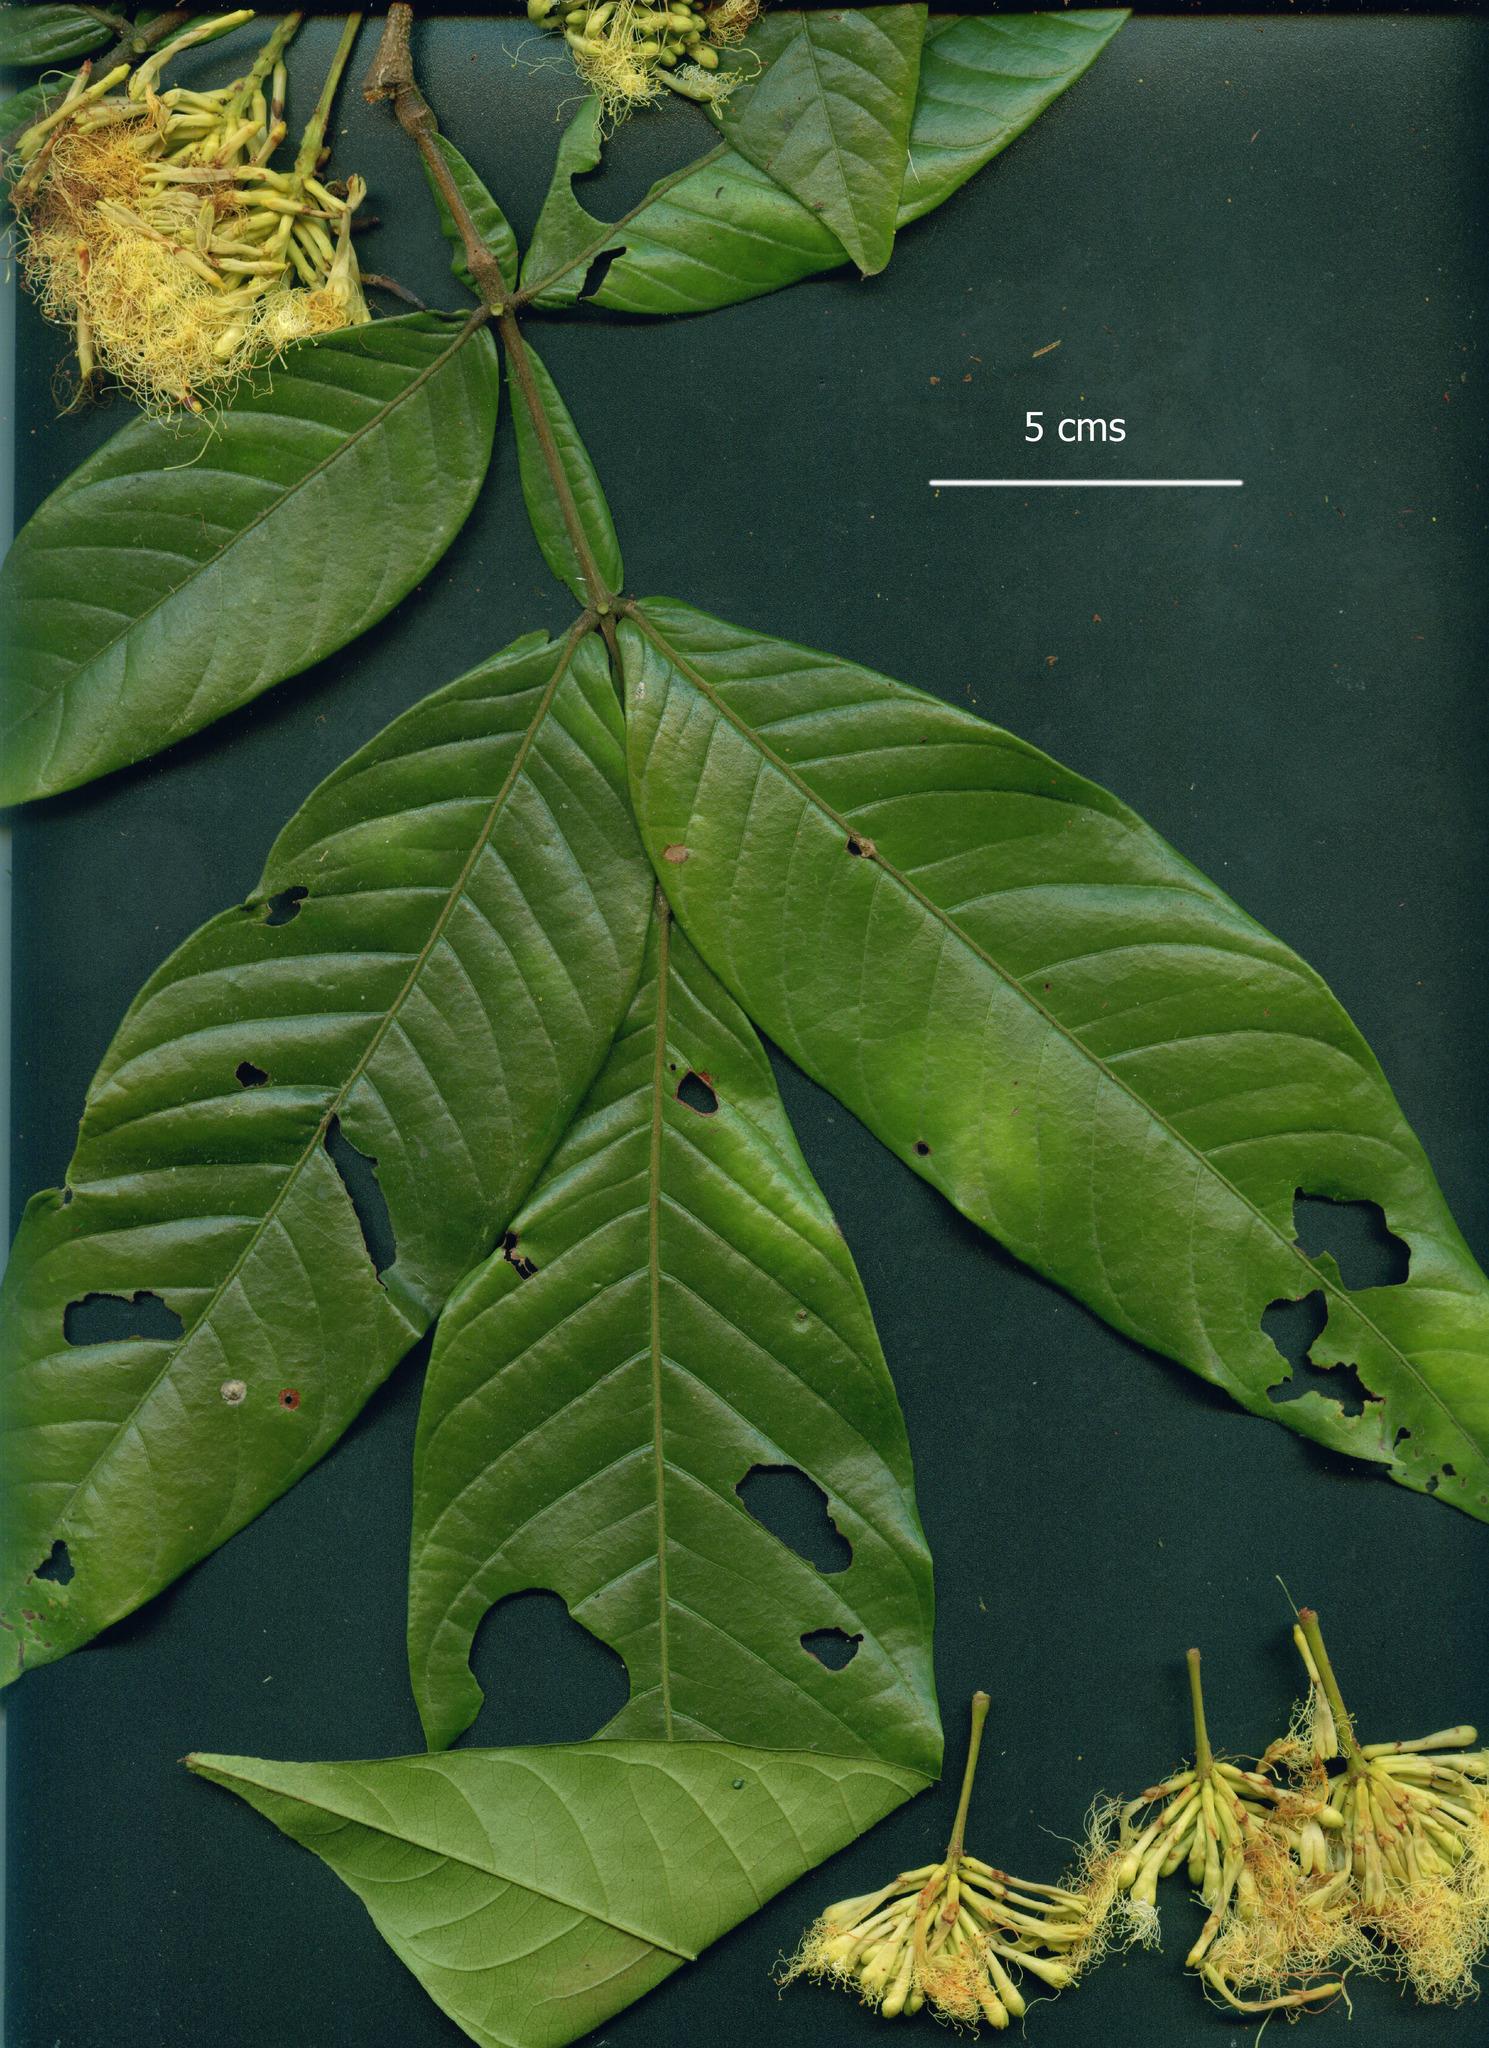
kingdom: Plantae
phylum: Tracheophyta
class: Magnoliopsida
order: Fabales
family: Fabaceae
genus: Inga
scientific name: Inga venusta
